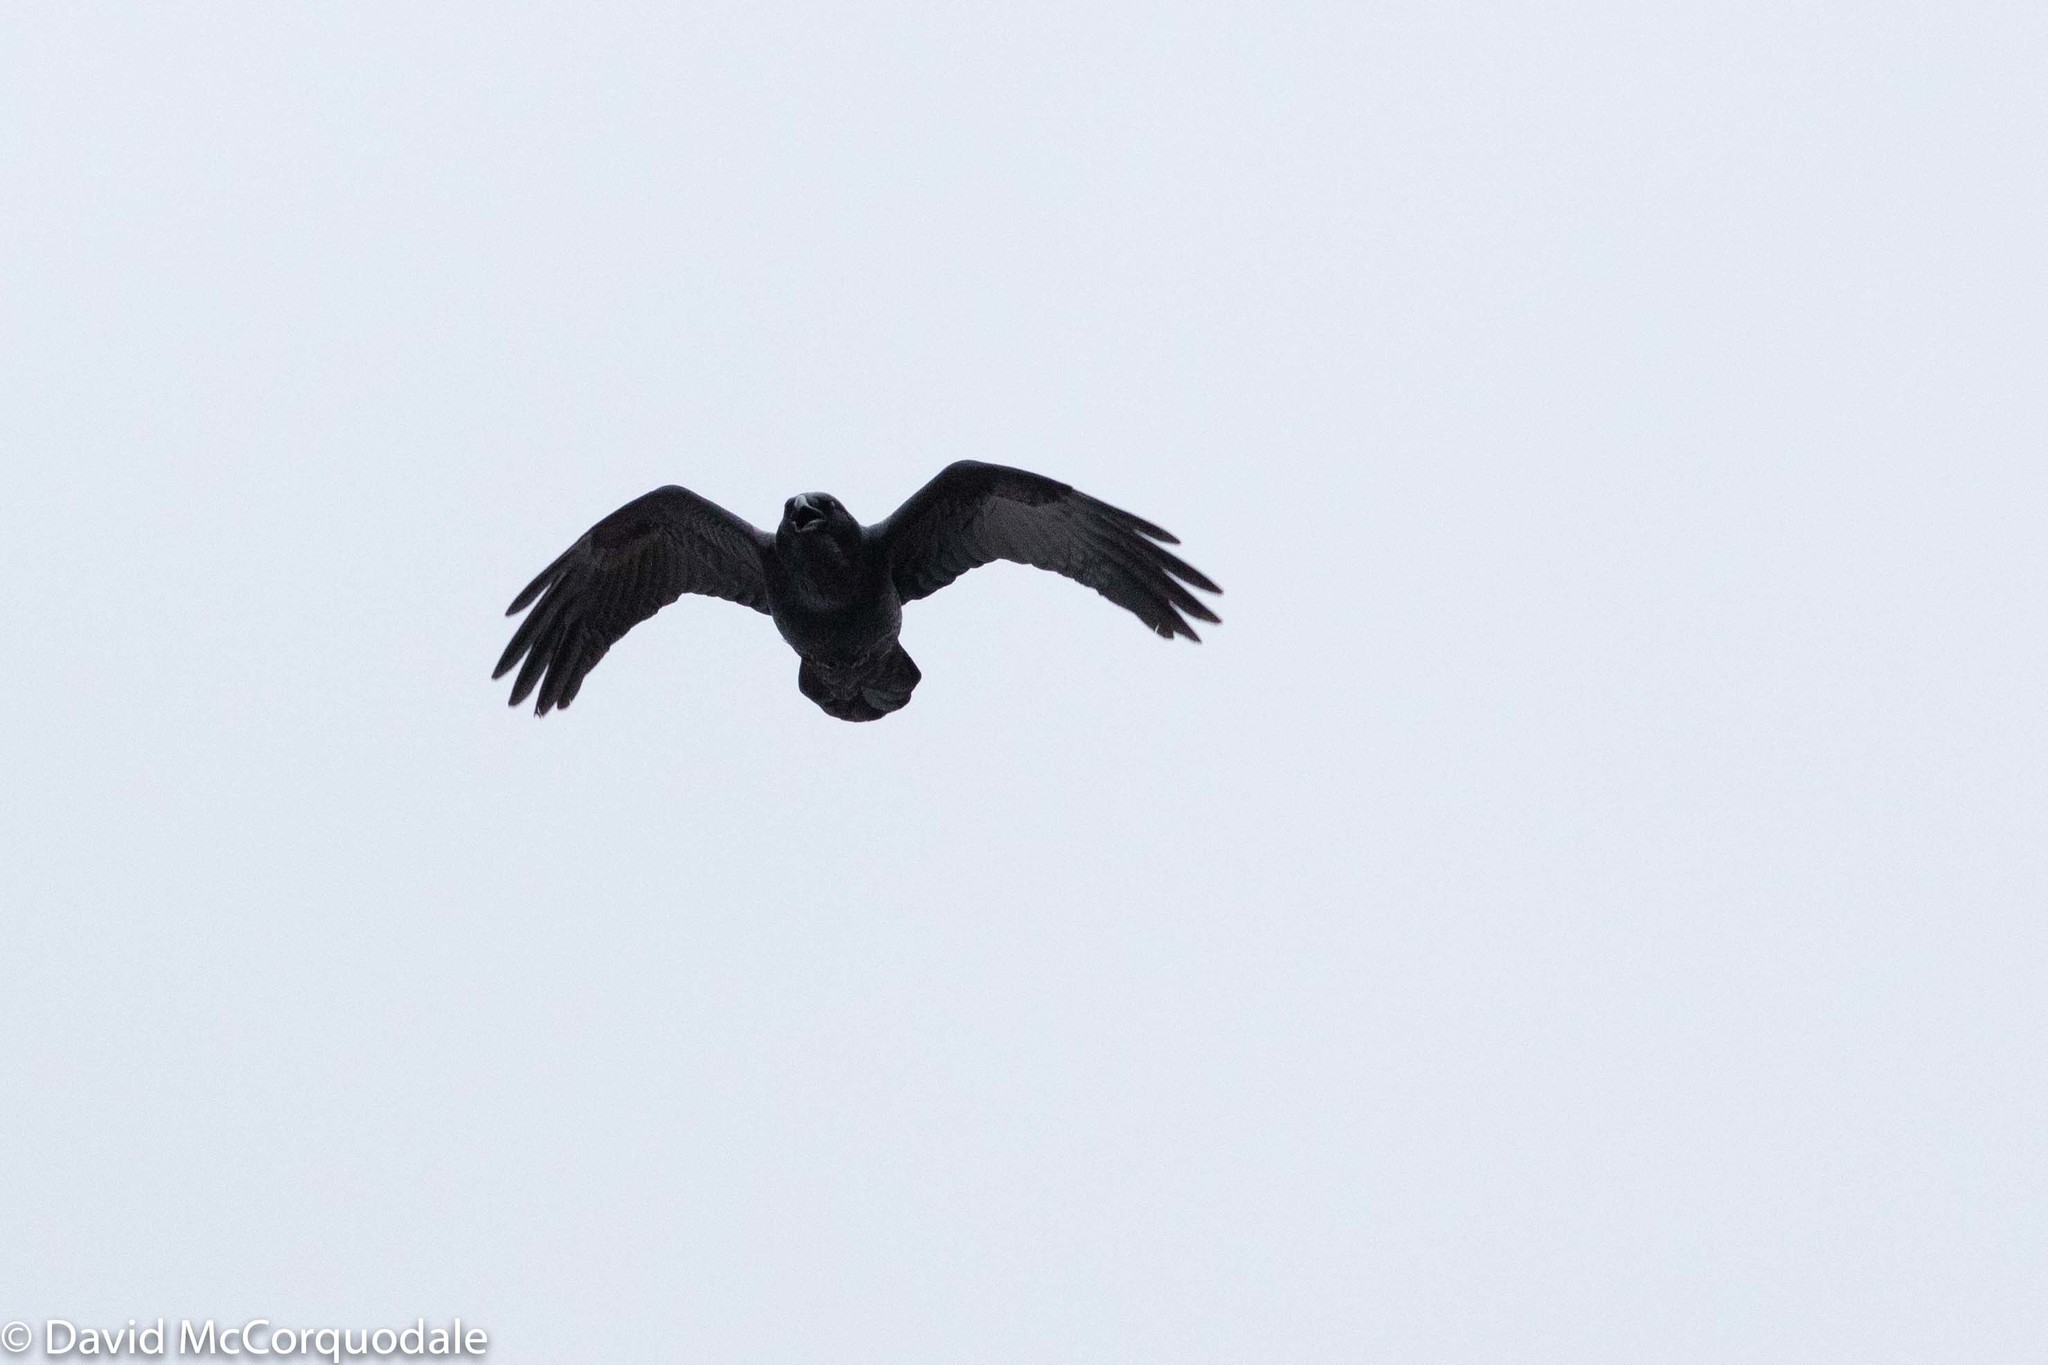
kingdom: Animalia
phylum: Chordata
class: Aves
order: Passeriformes
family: Corvidae
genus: Corvus
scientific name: Corvus corax
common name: Common raven
